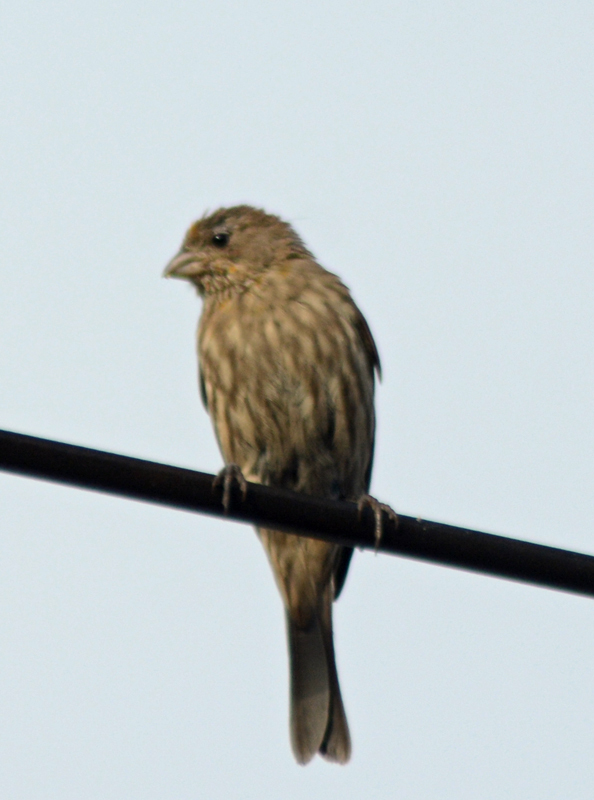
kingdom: Animalia
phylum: Chordata
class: Aves
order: Passeriformes
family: Fringillidae
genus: Haemorhous
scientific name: Haemorhous mexicanus
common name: House finch
